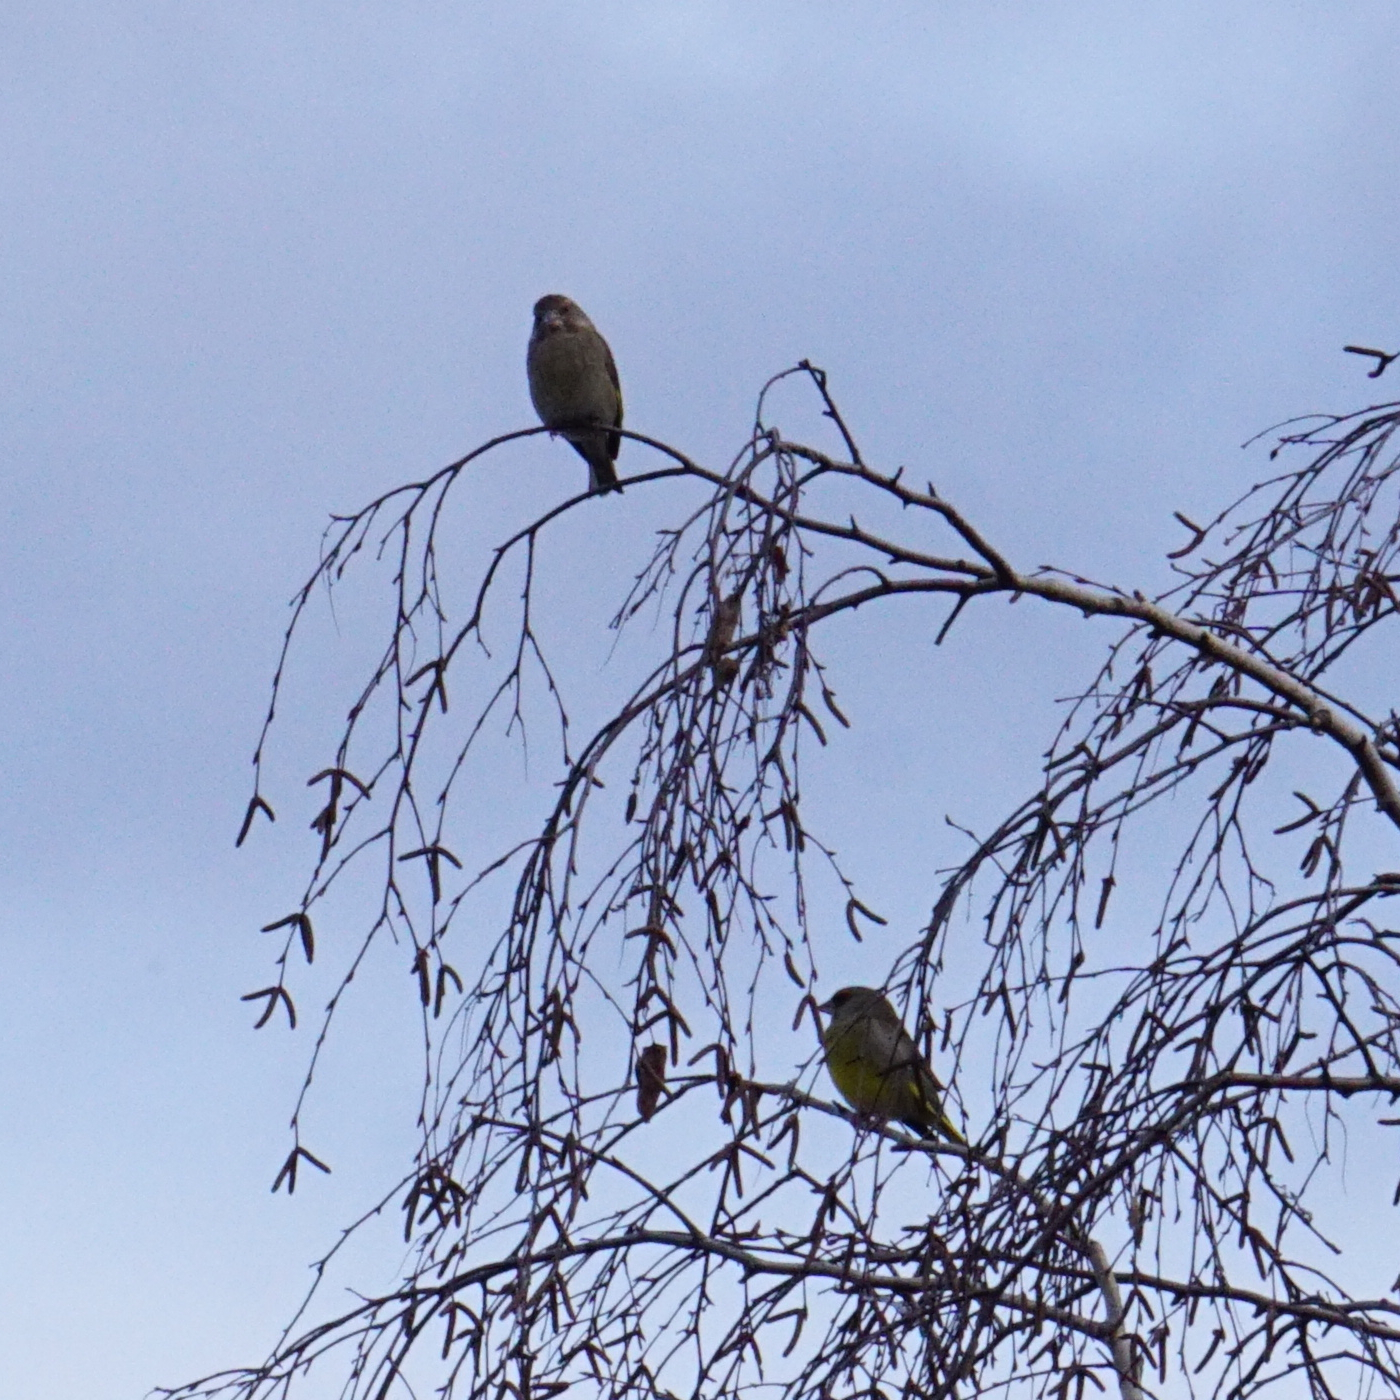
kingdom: Plantae
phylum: Tracheophyta
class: Liliopsida
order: Poales
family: Poaceae
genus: Chloris
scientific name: Chloris chloris
